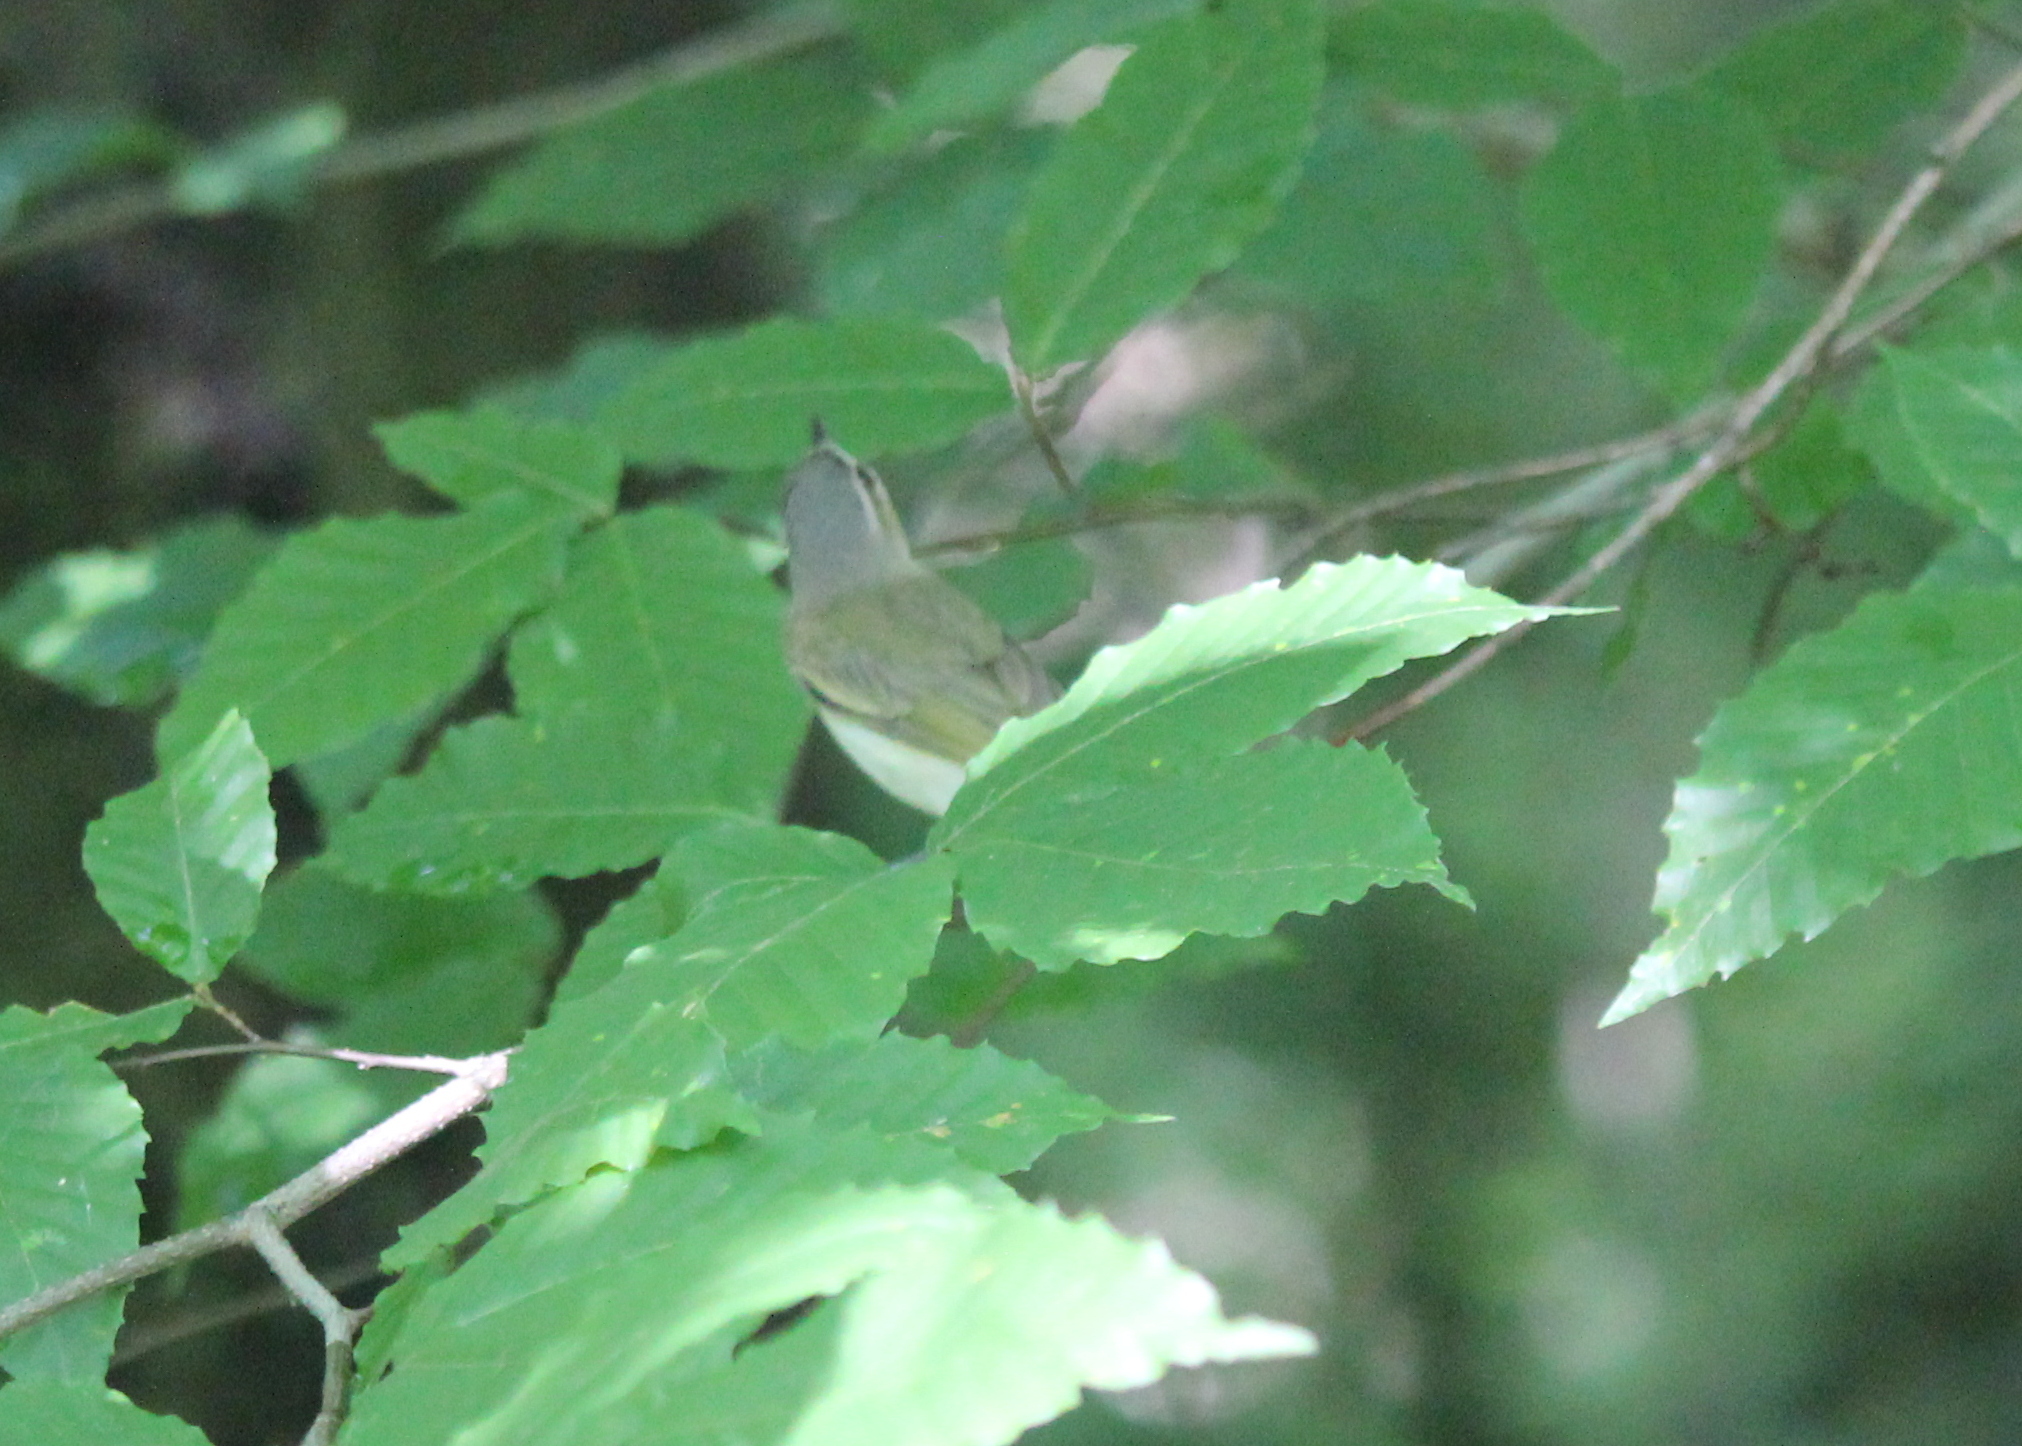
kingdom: Animalia
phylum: Chordata
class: Aves
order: Passeriformes
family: Vireonidae
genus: Vireo
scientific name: Vireo olivaceus
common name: Red-eyed vireo
